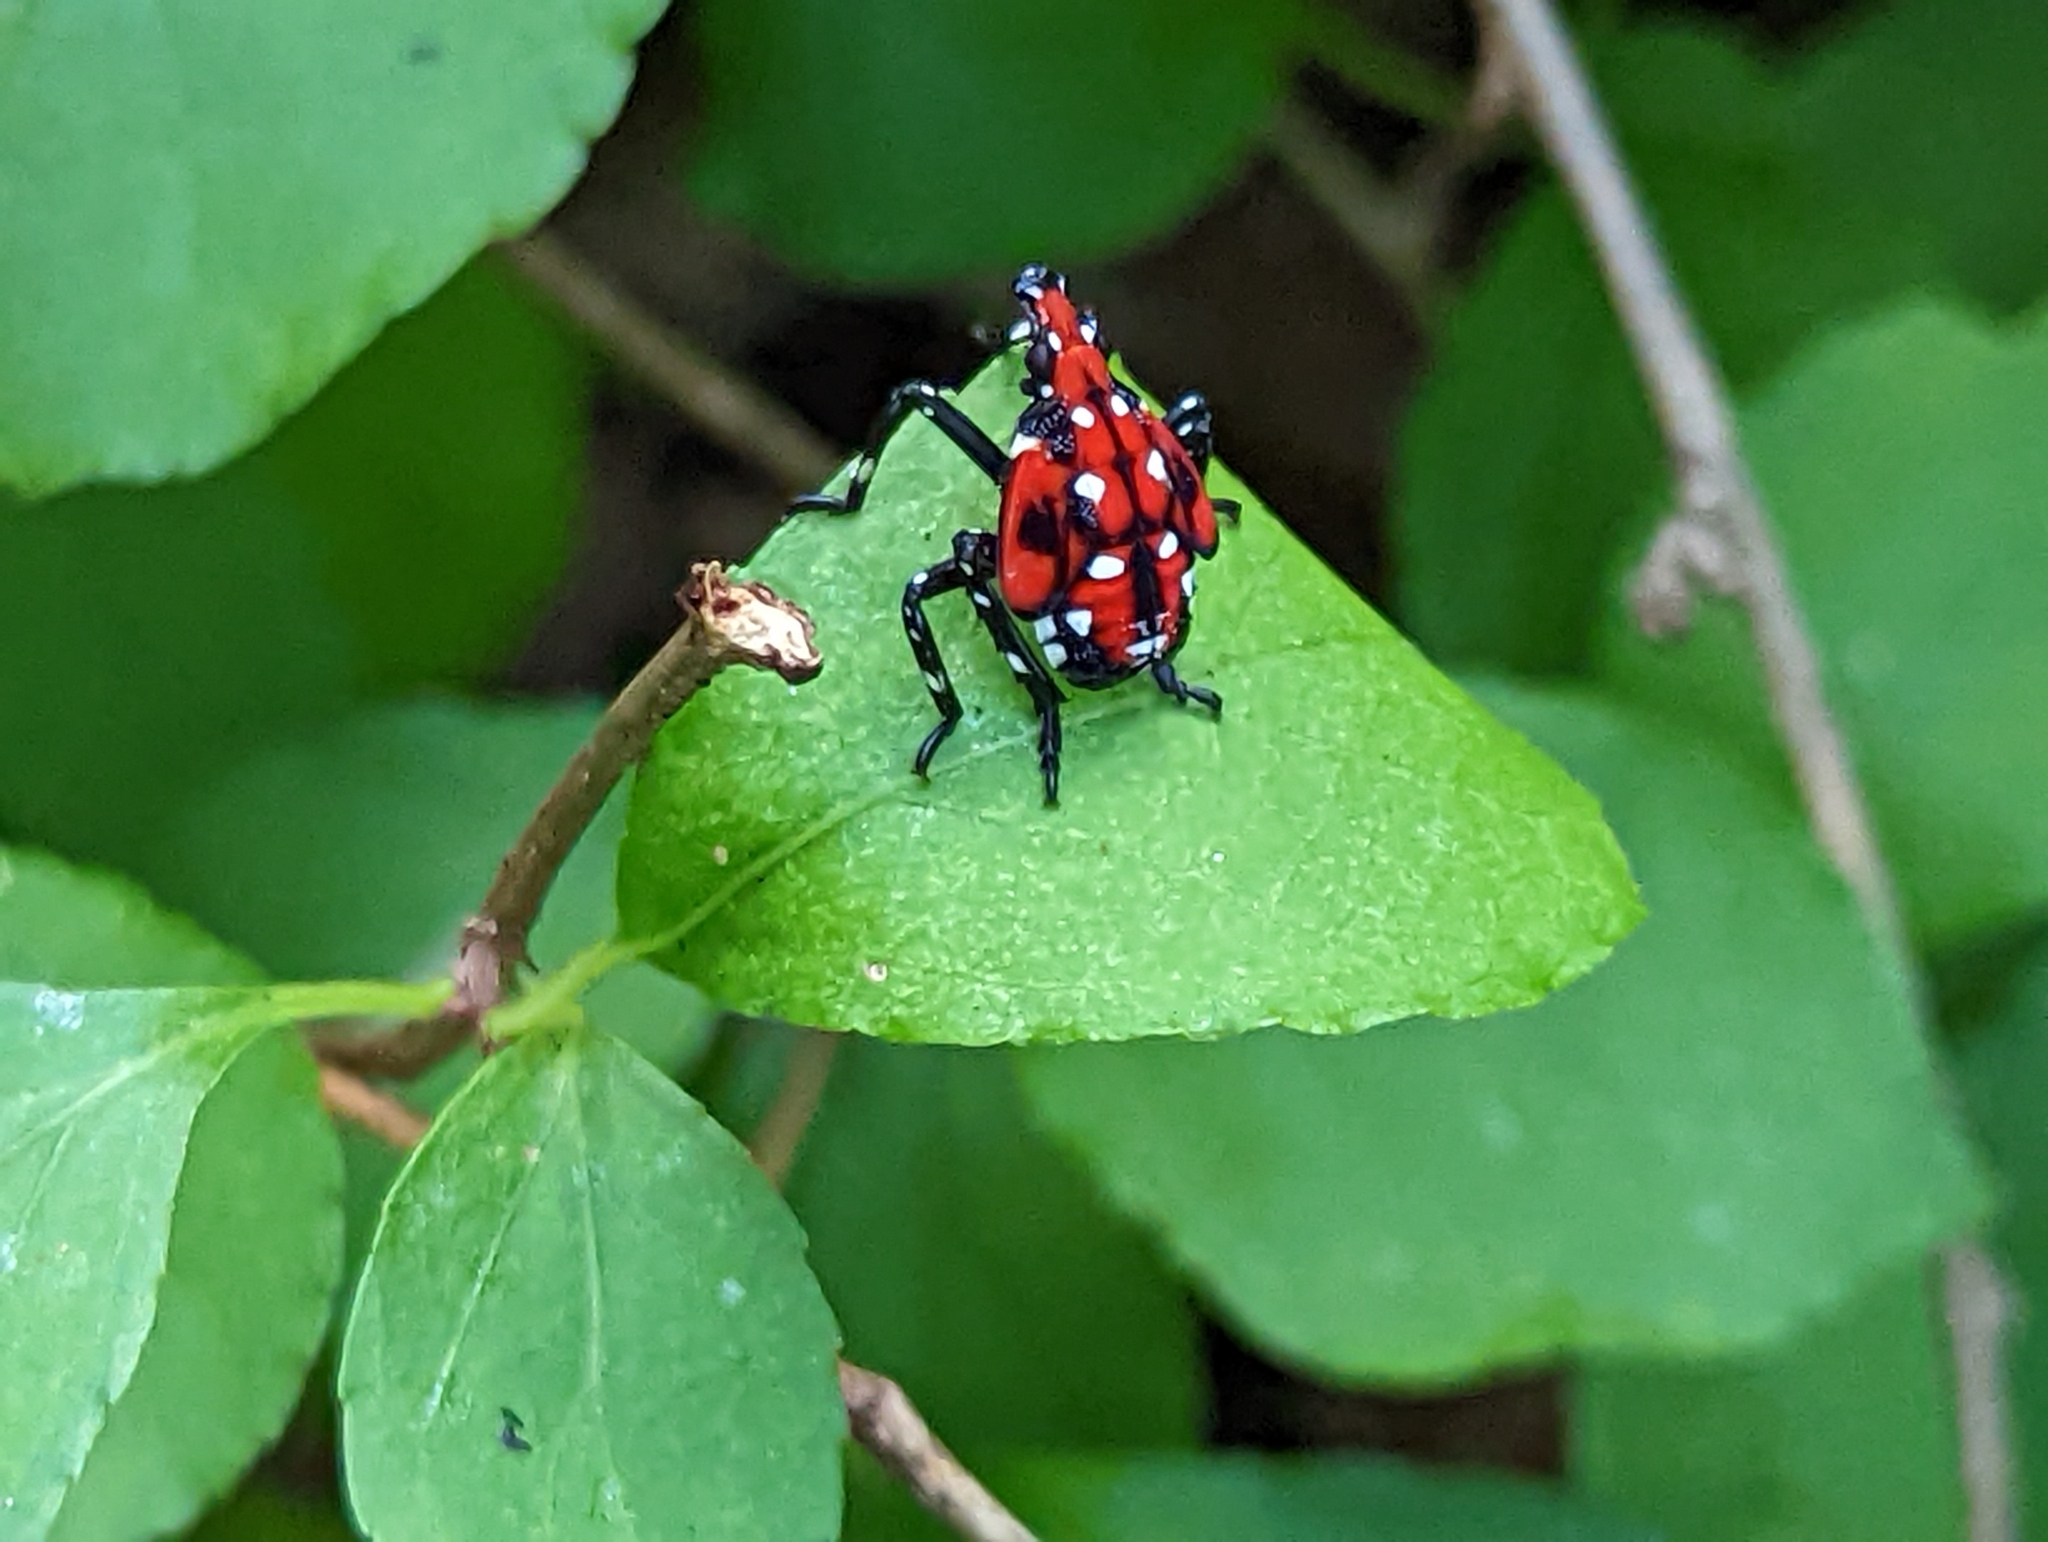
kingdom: Animalia
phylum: Arthropoda
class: Insecta
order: Hemiptera
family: Fulgoridae
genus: Lycorma
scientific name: Lycorma delicatula
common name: Spotted lanternfly
